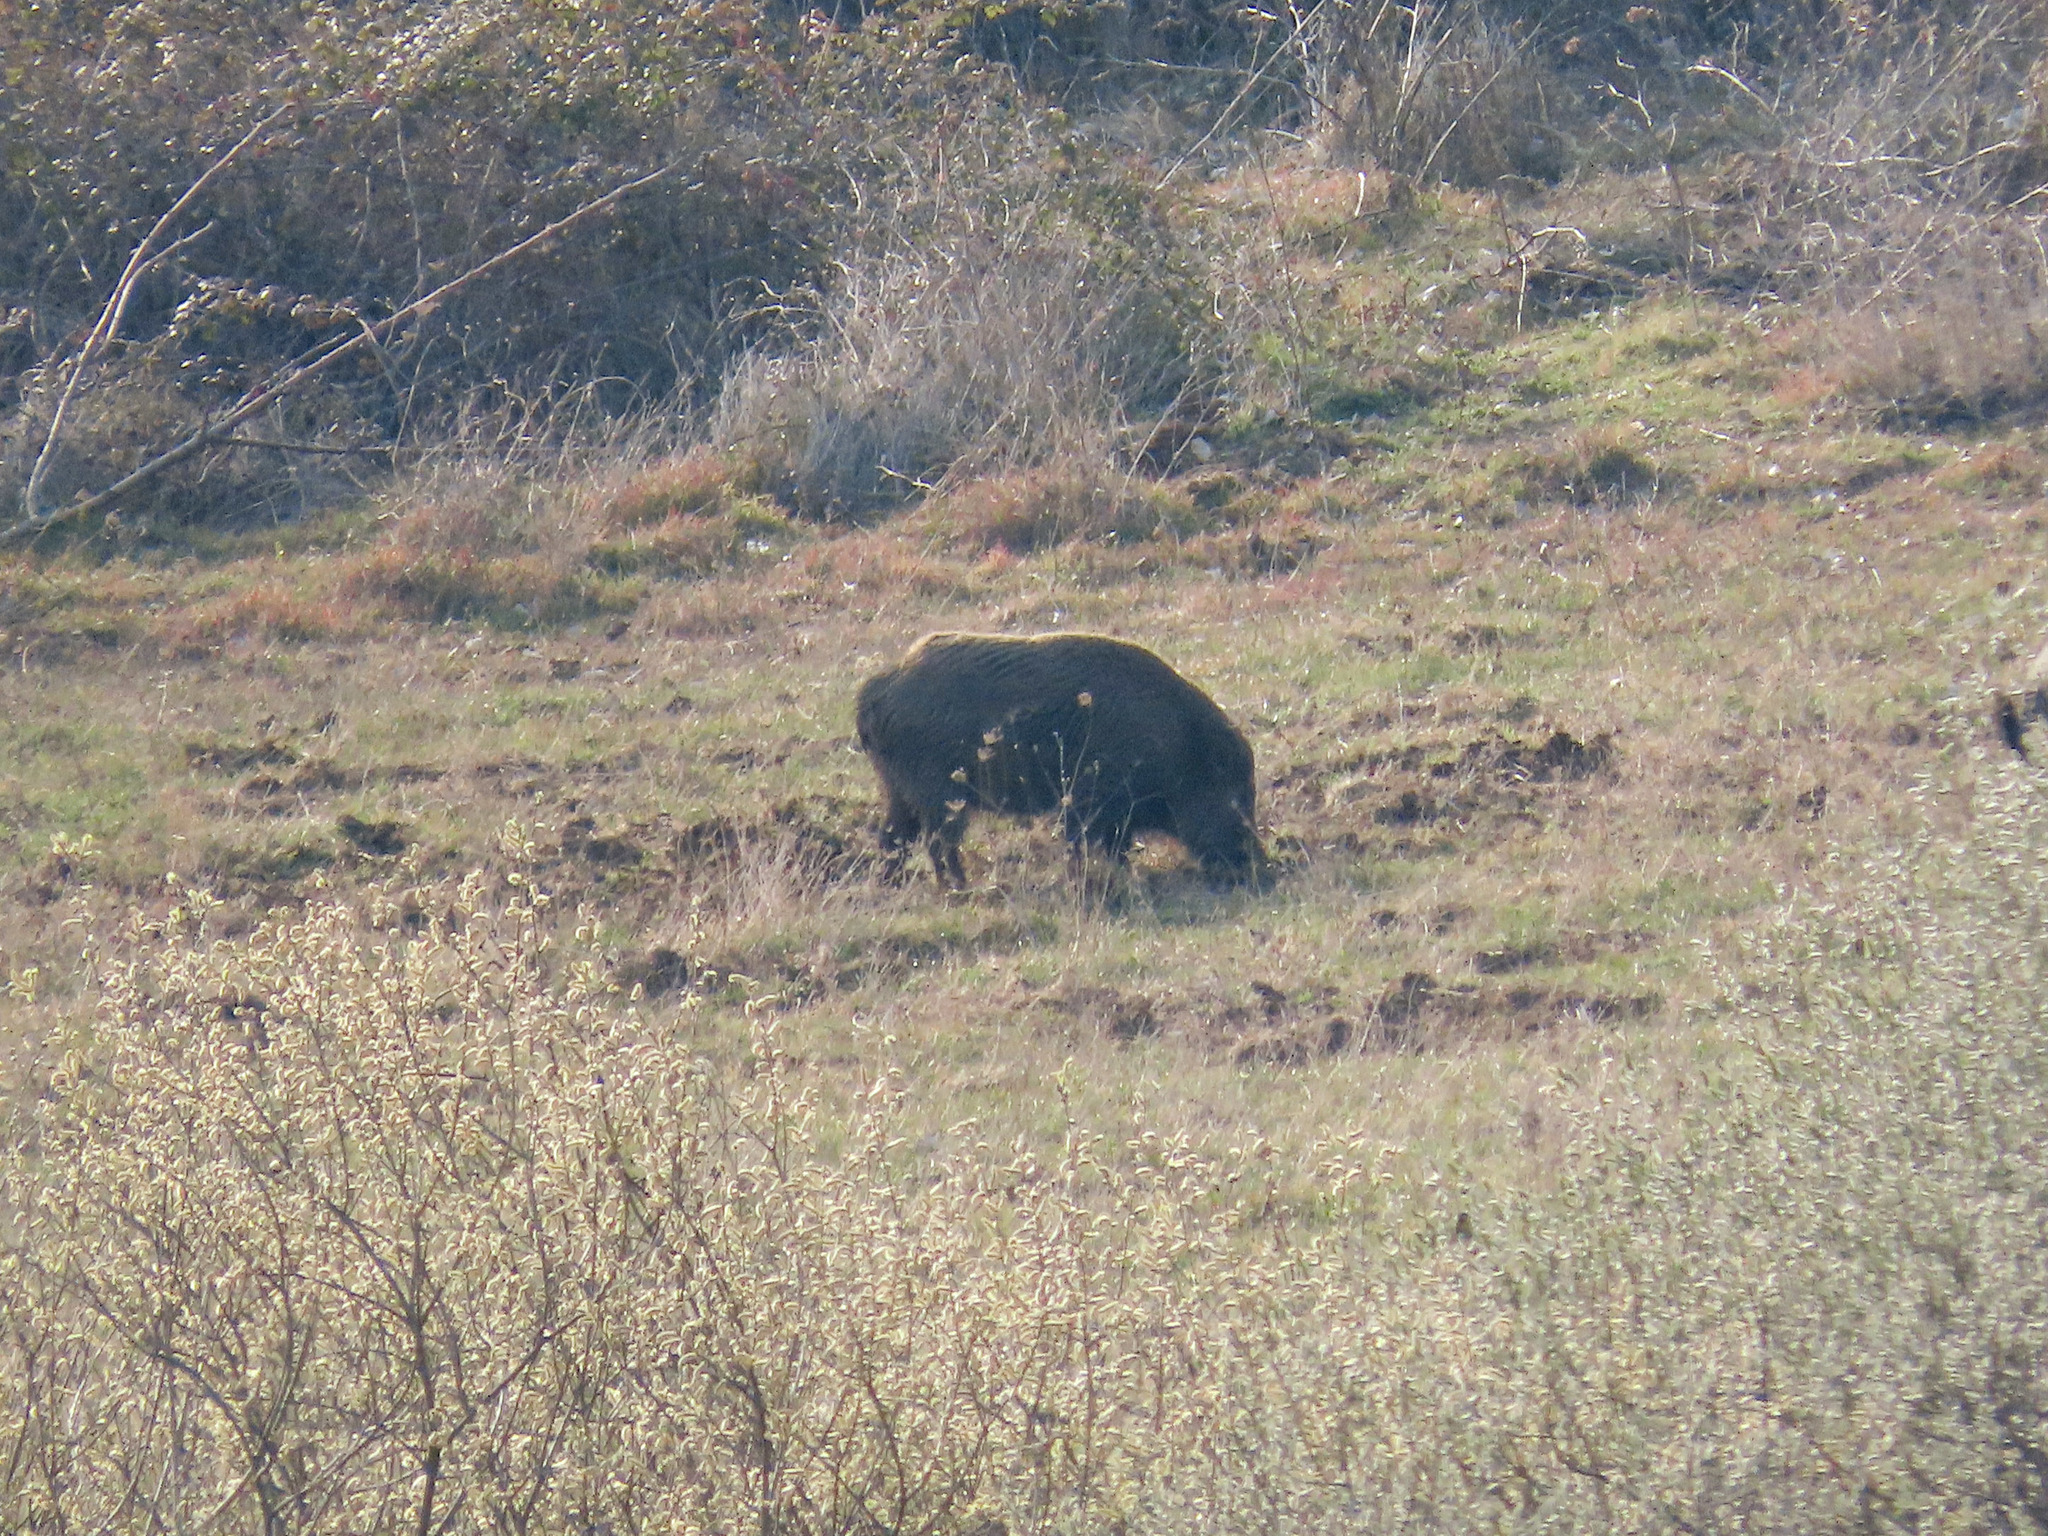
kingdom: Animalia
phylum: Chordata
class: Mammalia
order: Artiodactyla
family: Suidae
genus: Sus
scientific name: Sus scrofa
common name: Wild boar
